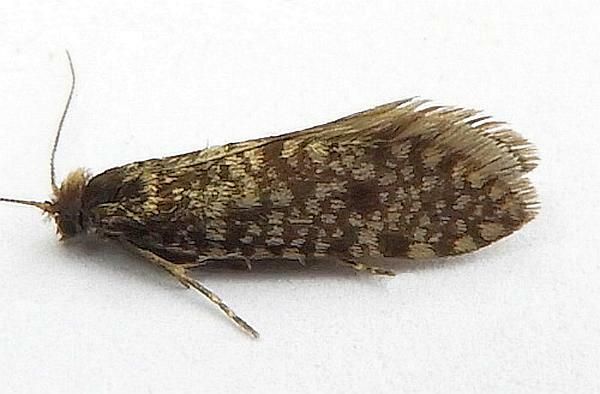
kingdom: Animalia
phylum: Arthropoda
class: Insecta
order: Lepidoptera
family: Psychidae
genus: Dahlica
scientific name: Dahlica walshella
